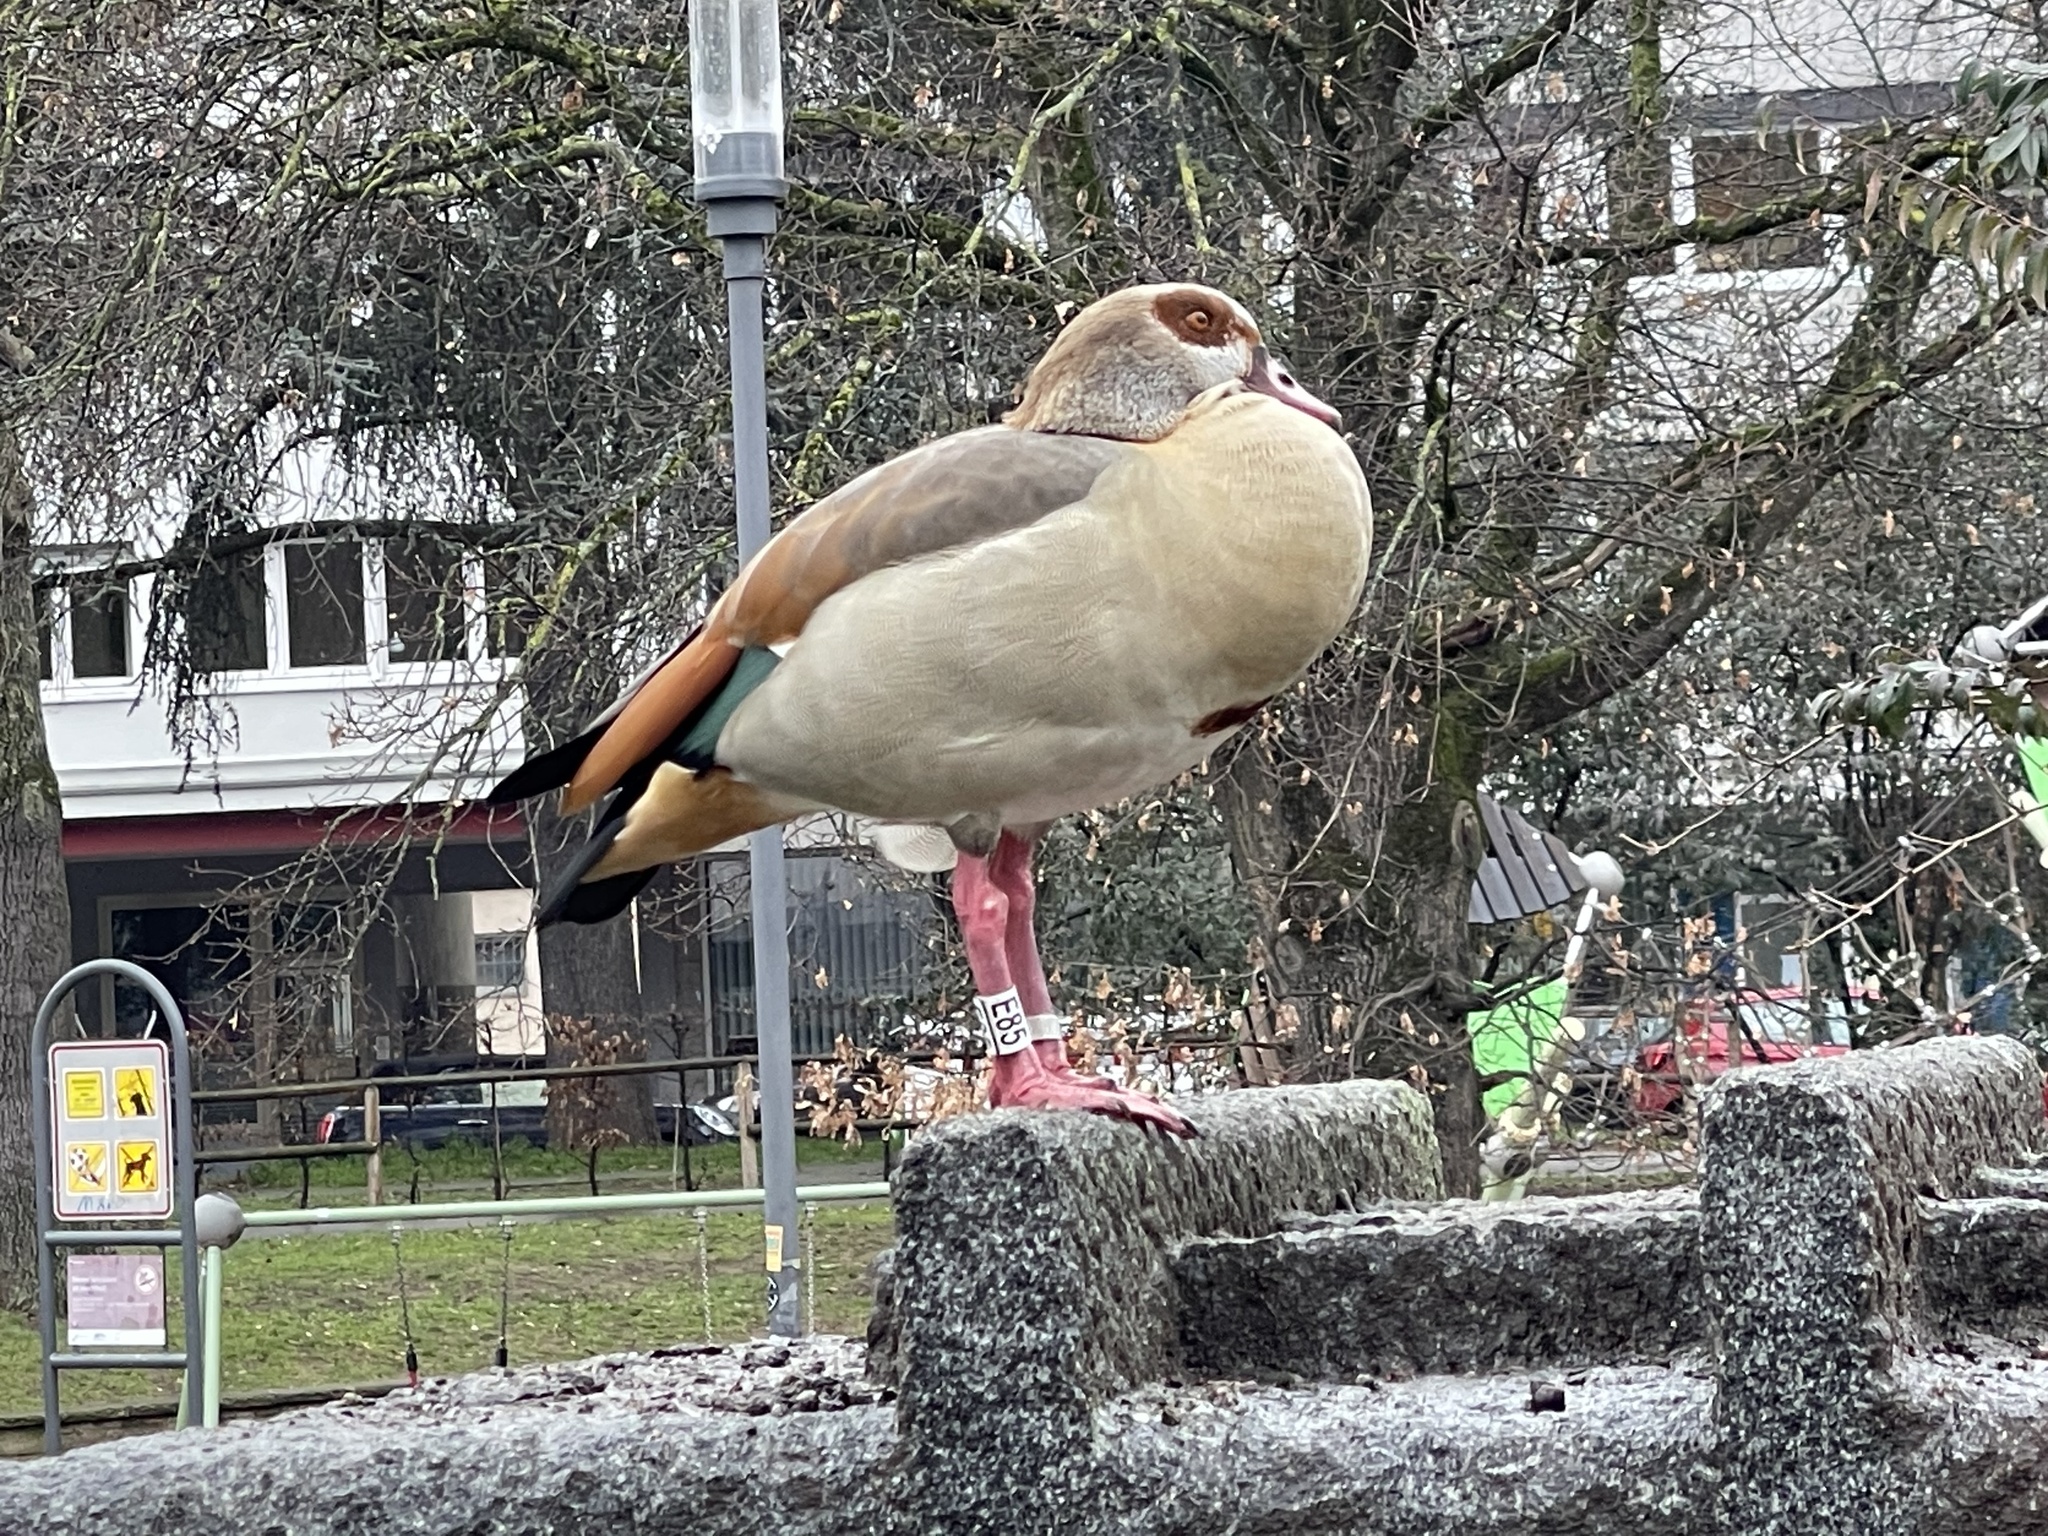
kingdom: Animalia
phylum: Chordata
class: Aves
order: Anseriformes
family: Anatidae
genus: Alopochen
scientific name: Alopochen aegyptiaca
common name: Egyptian goose
